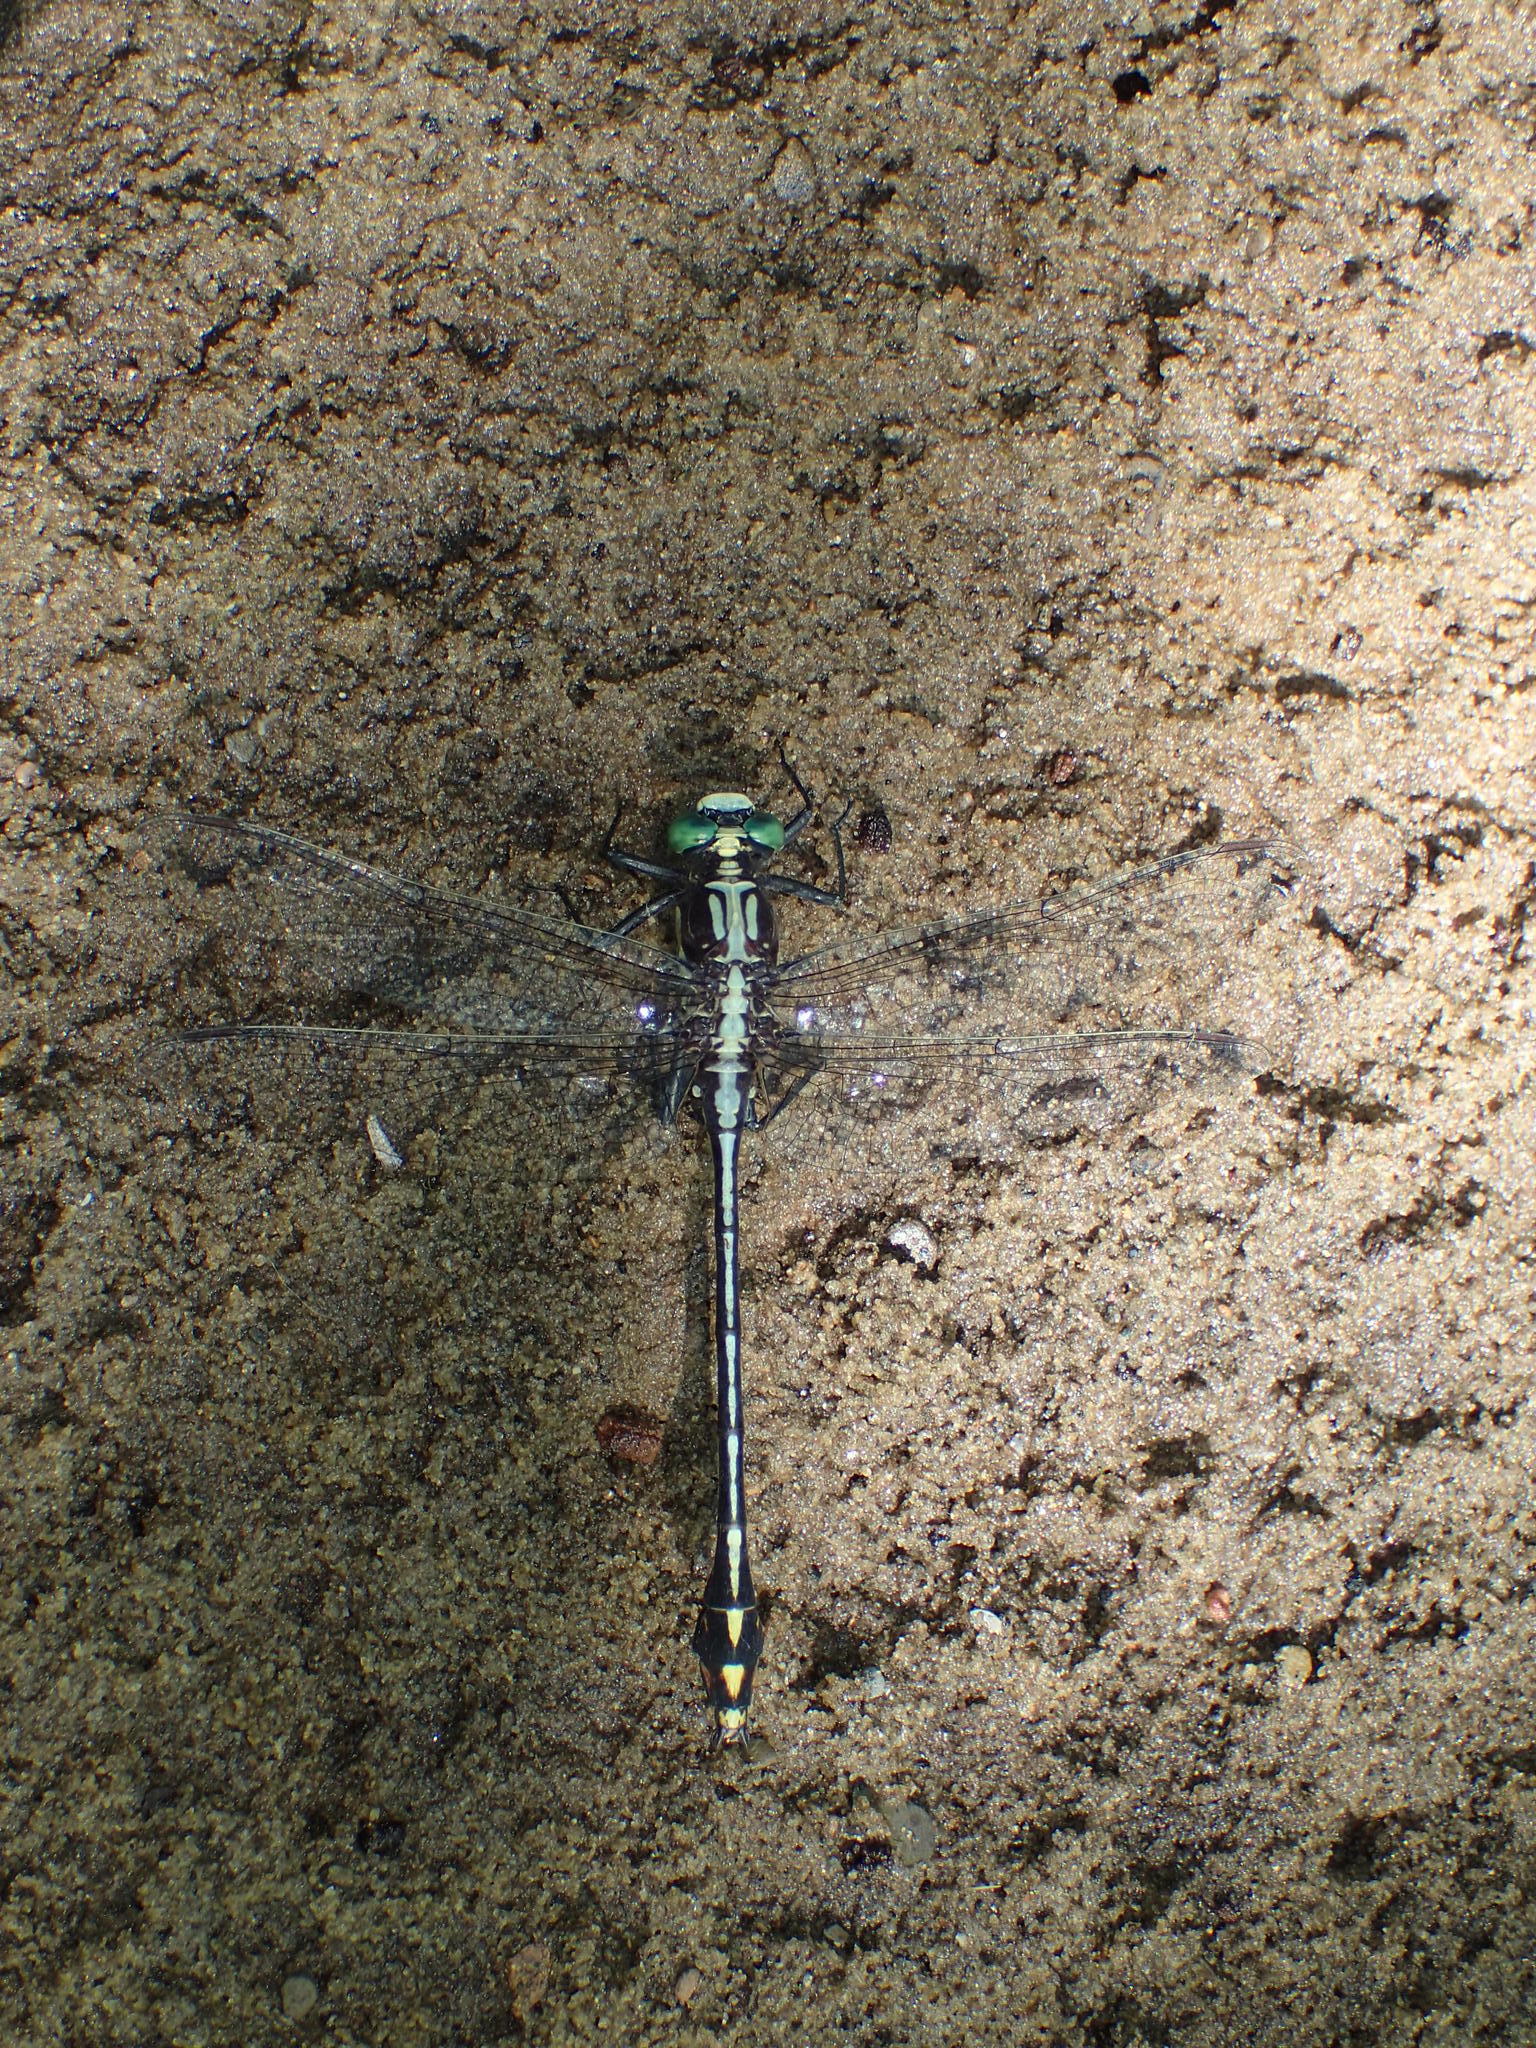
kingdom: Animalia
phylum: Arthropoda
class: Insecta
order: Odonata
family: Gomphidae
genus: Dromogomphus
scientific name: Dromogomphus spinosus
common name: Black-shouldered spinyleg
